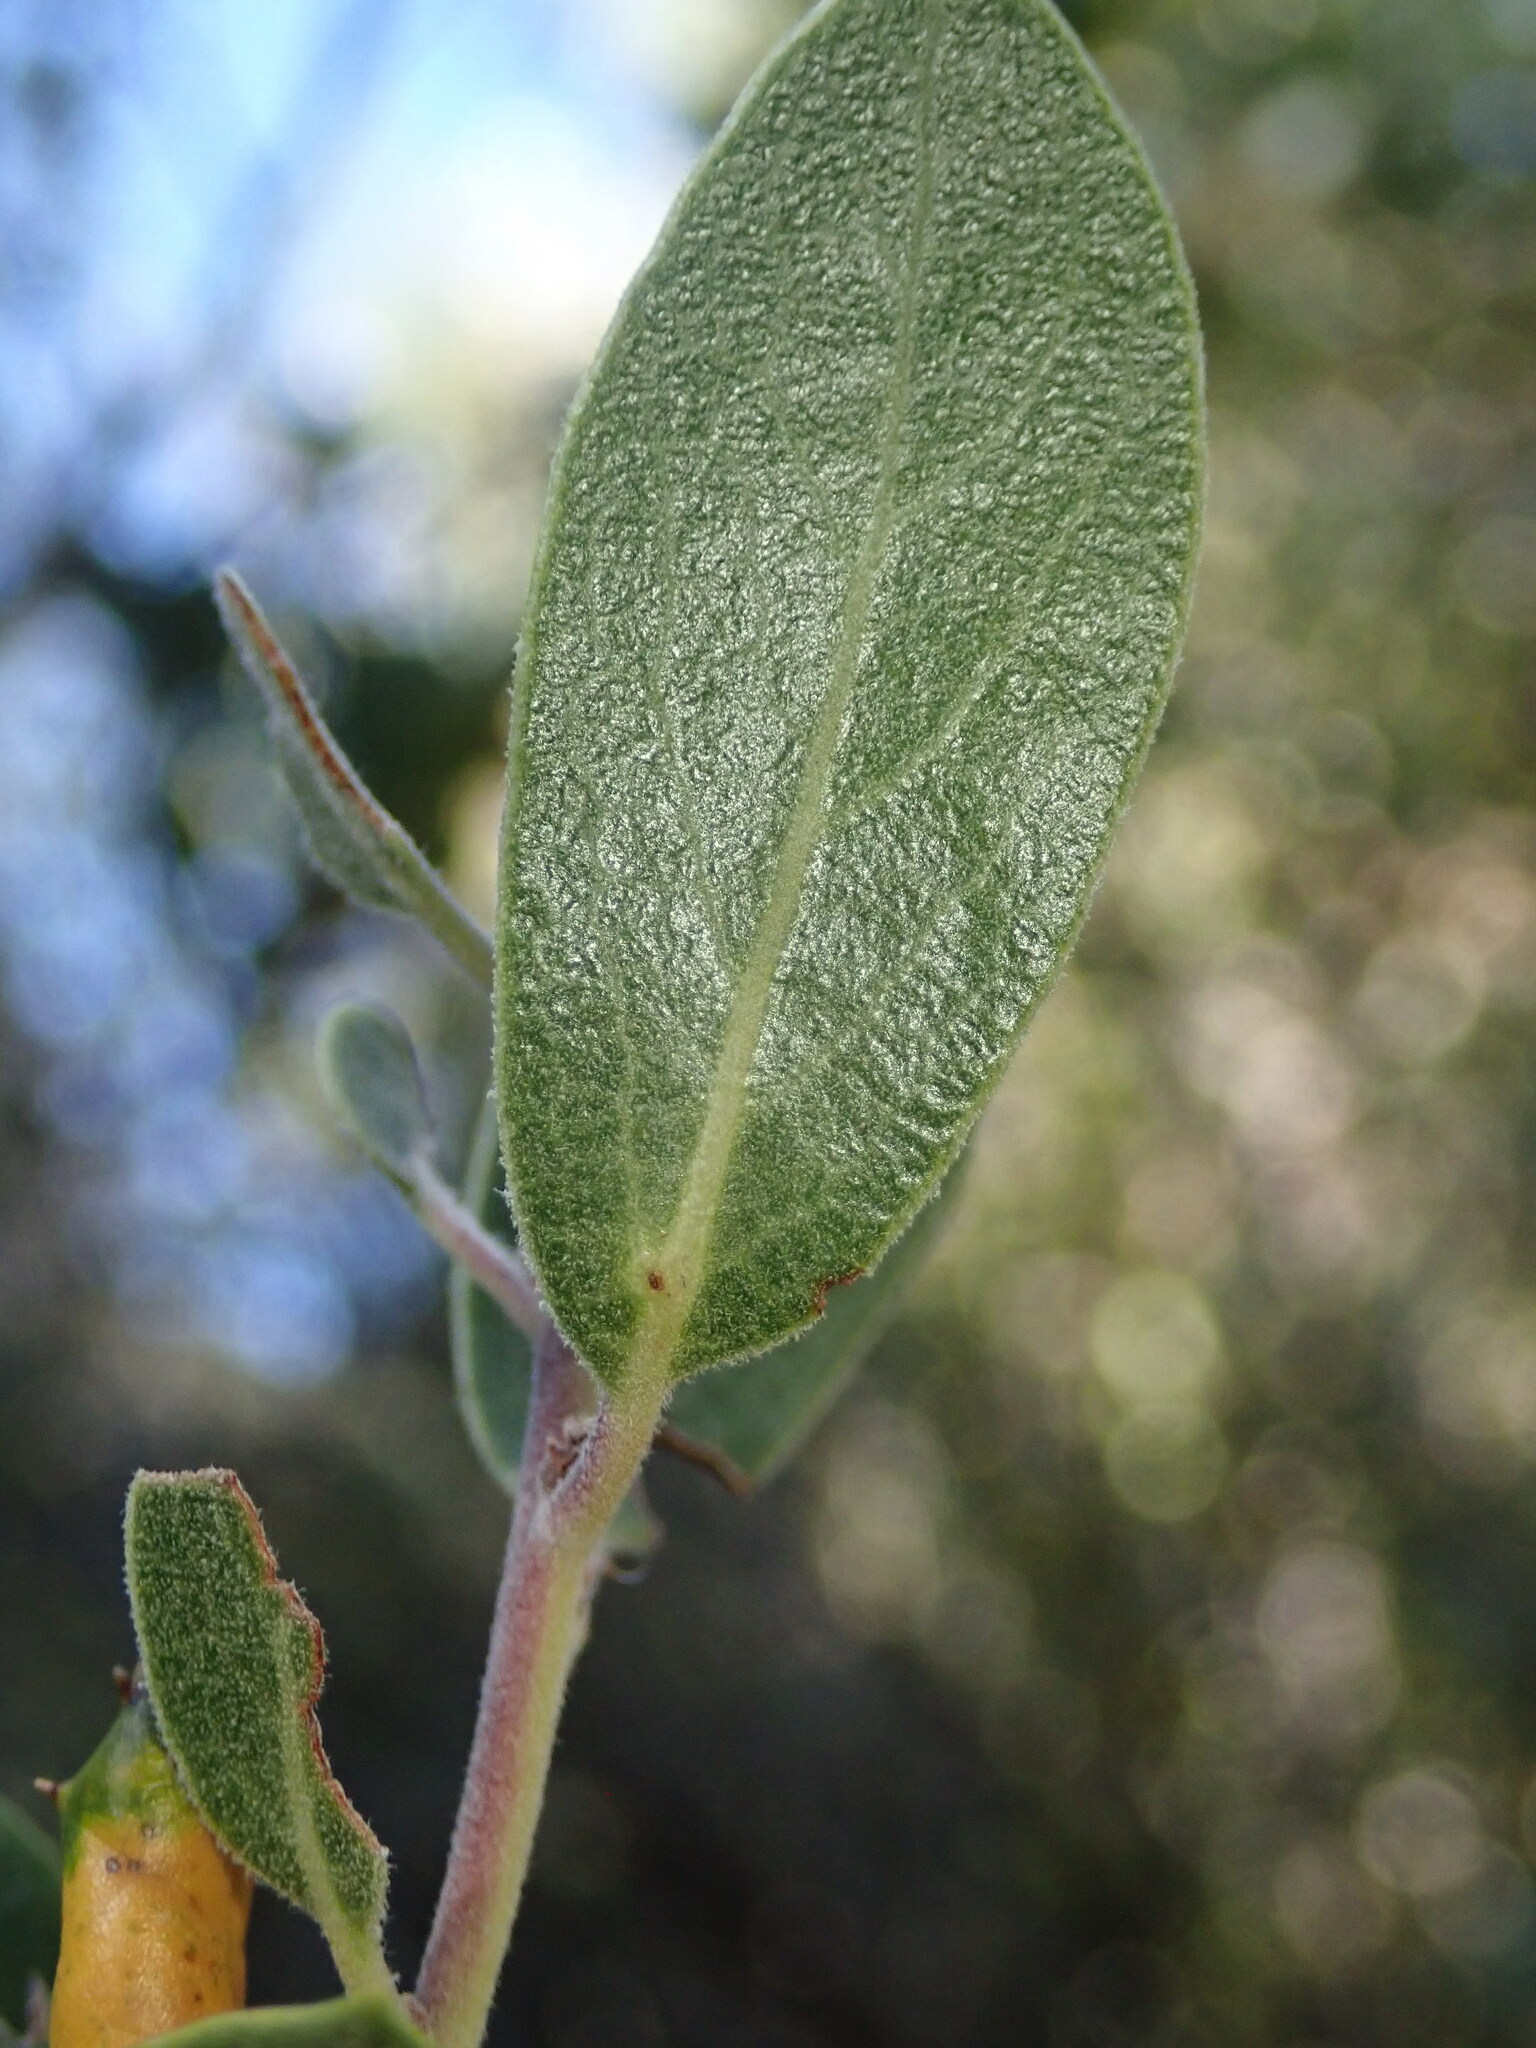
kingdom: Plantae
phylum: Tracheophyta
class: Magnoliopsida
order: Ericales
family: Ericaceae
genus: Arctostaphylos
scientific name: Arctostaphylos pungens
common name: Mexican manzanita
